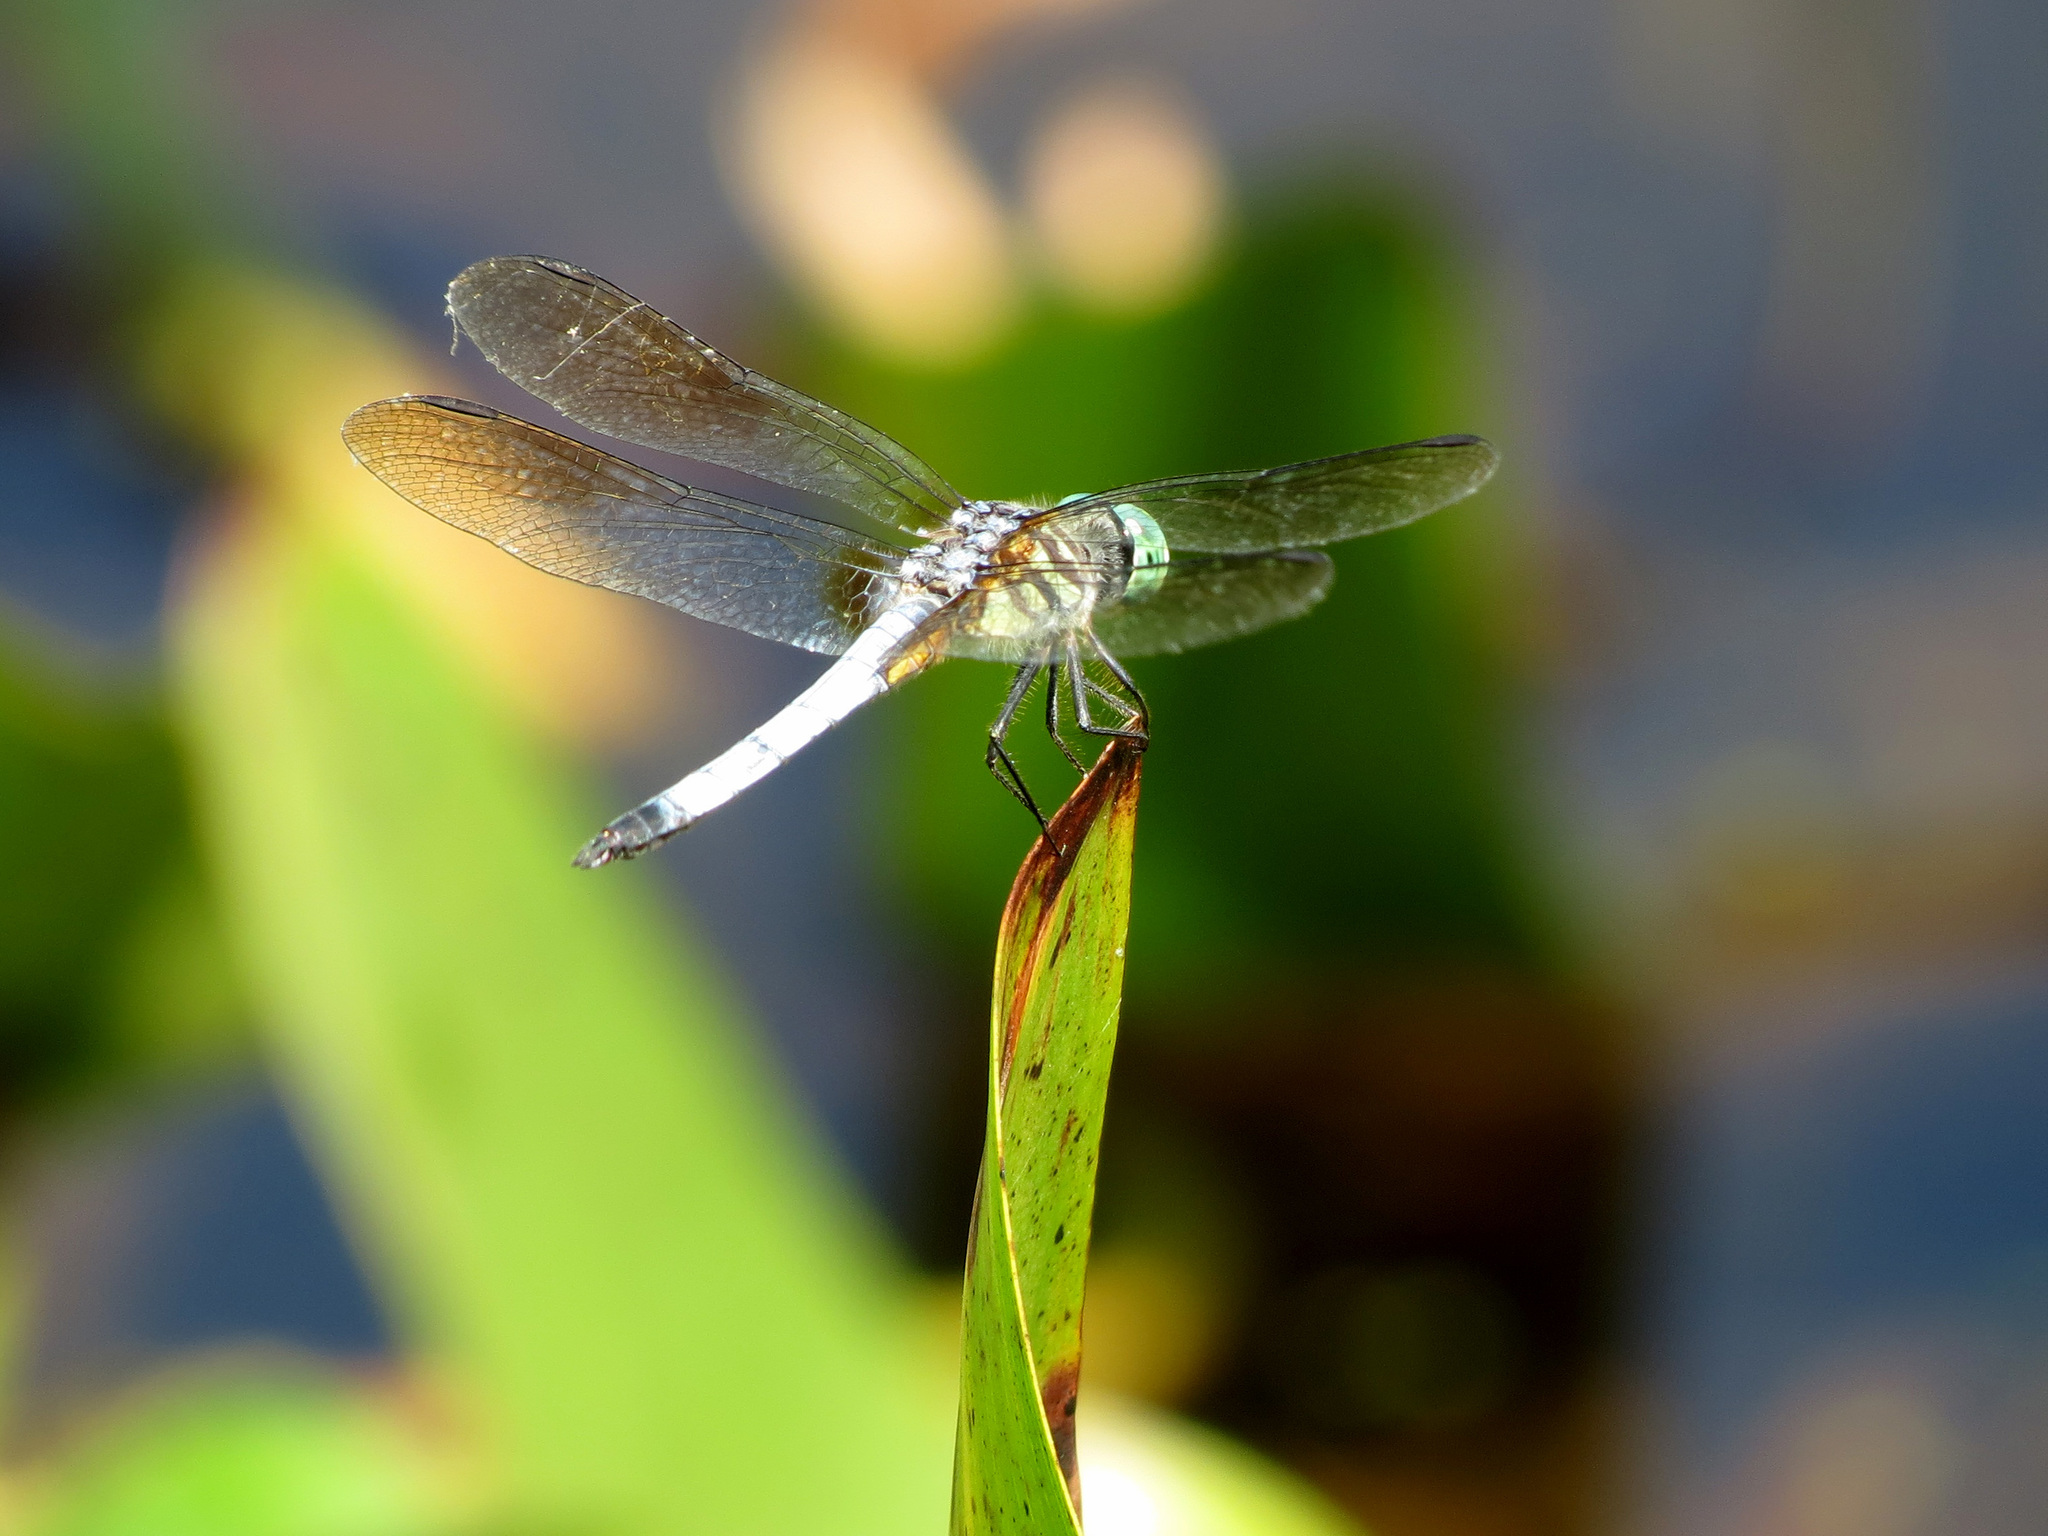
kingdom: Animalia
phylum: Arthropoda
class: Insecta
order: Odonata
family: Libellulidae
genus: Pachydiplax
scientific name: Pachydiplax longipennis
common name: Blue dasher
